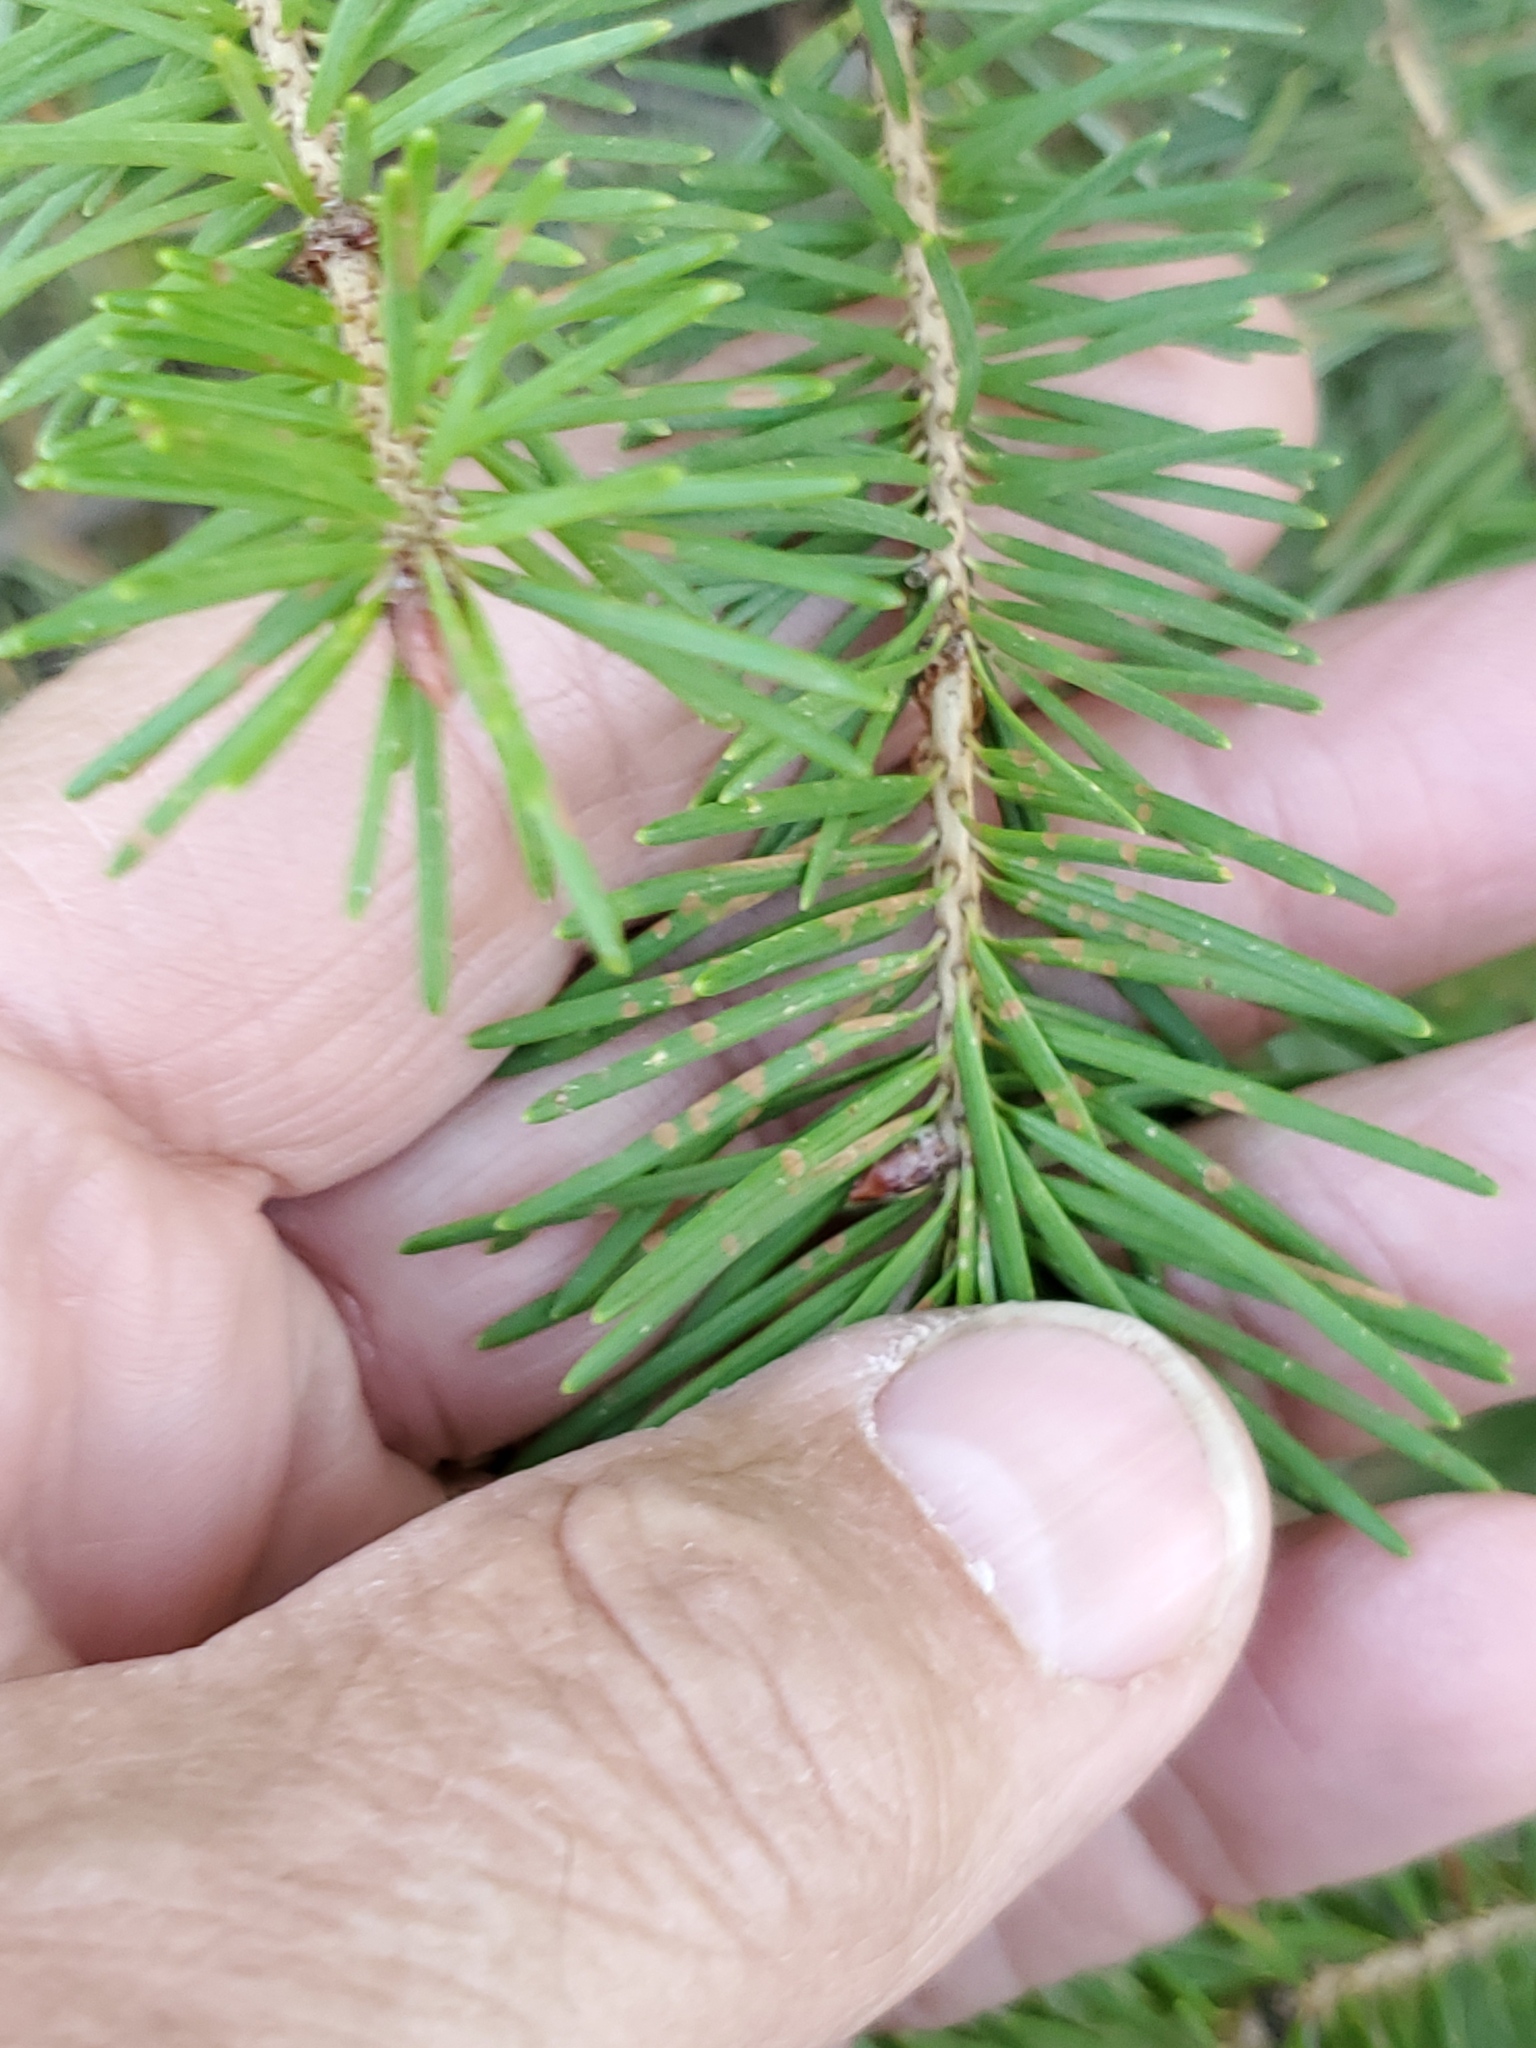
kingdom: Plantae
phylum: Tracheophyta
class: Pinopsida
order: Pinales
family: Pinaceae
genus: Pseudotsuga
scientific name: Pseudotsuga menziesii
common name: Douglas fir
